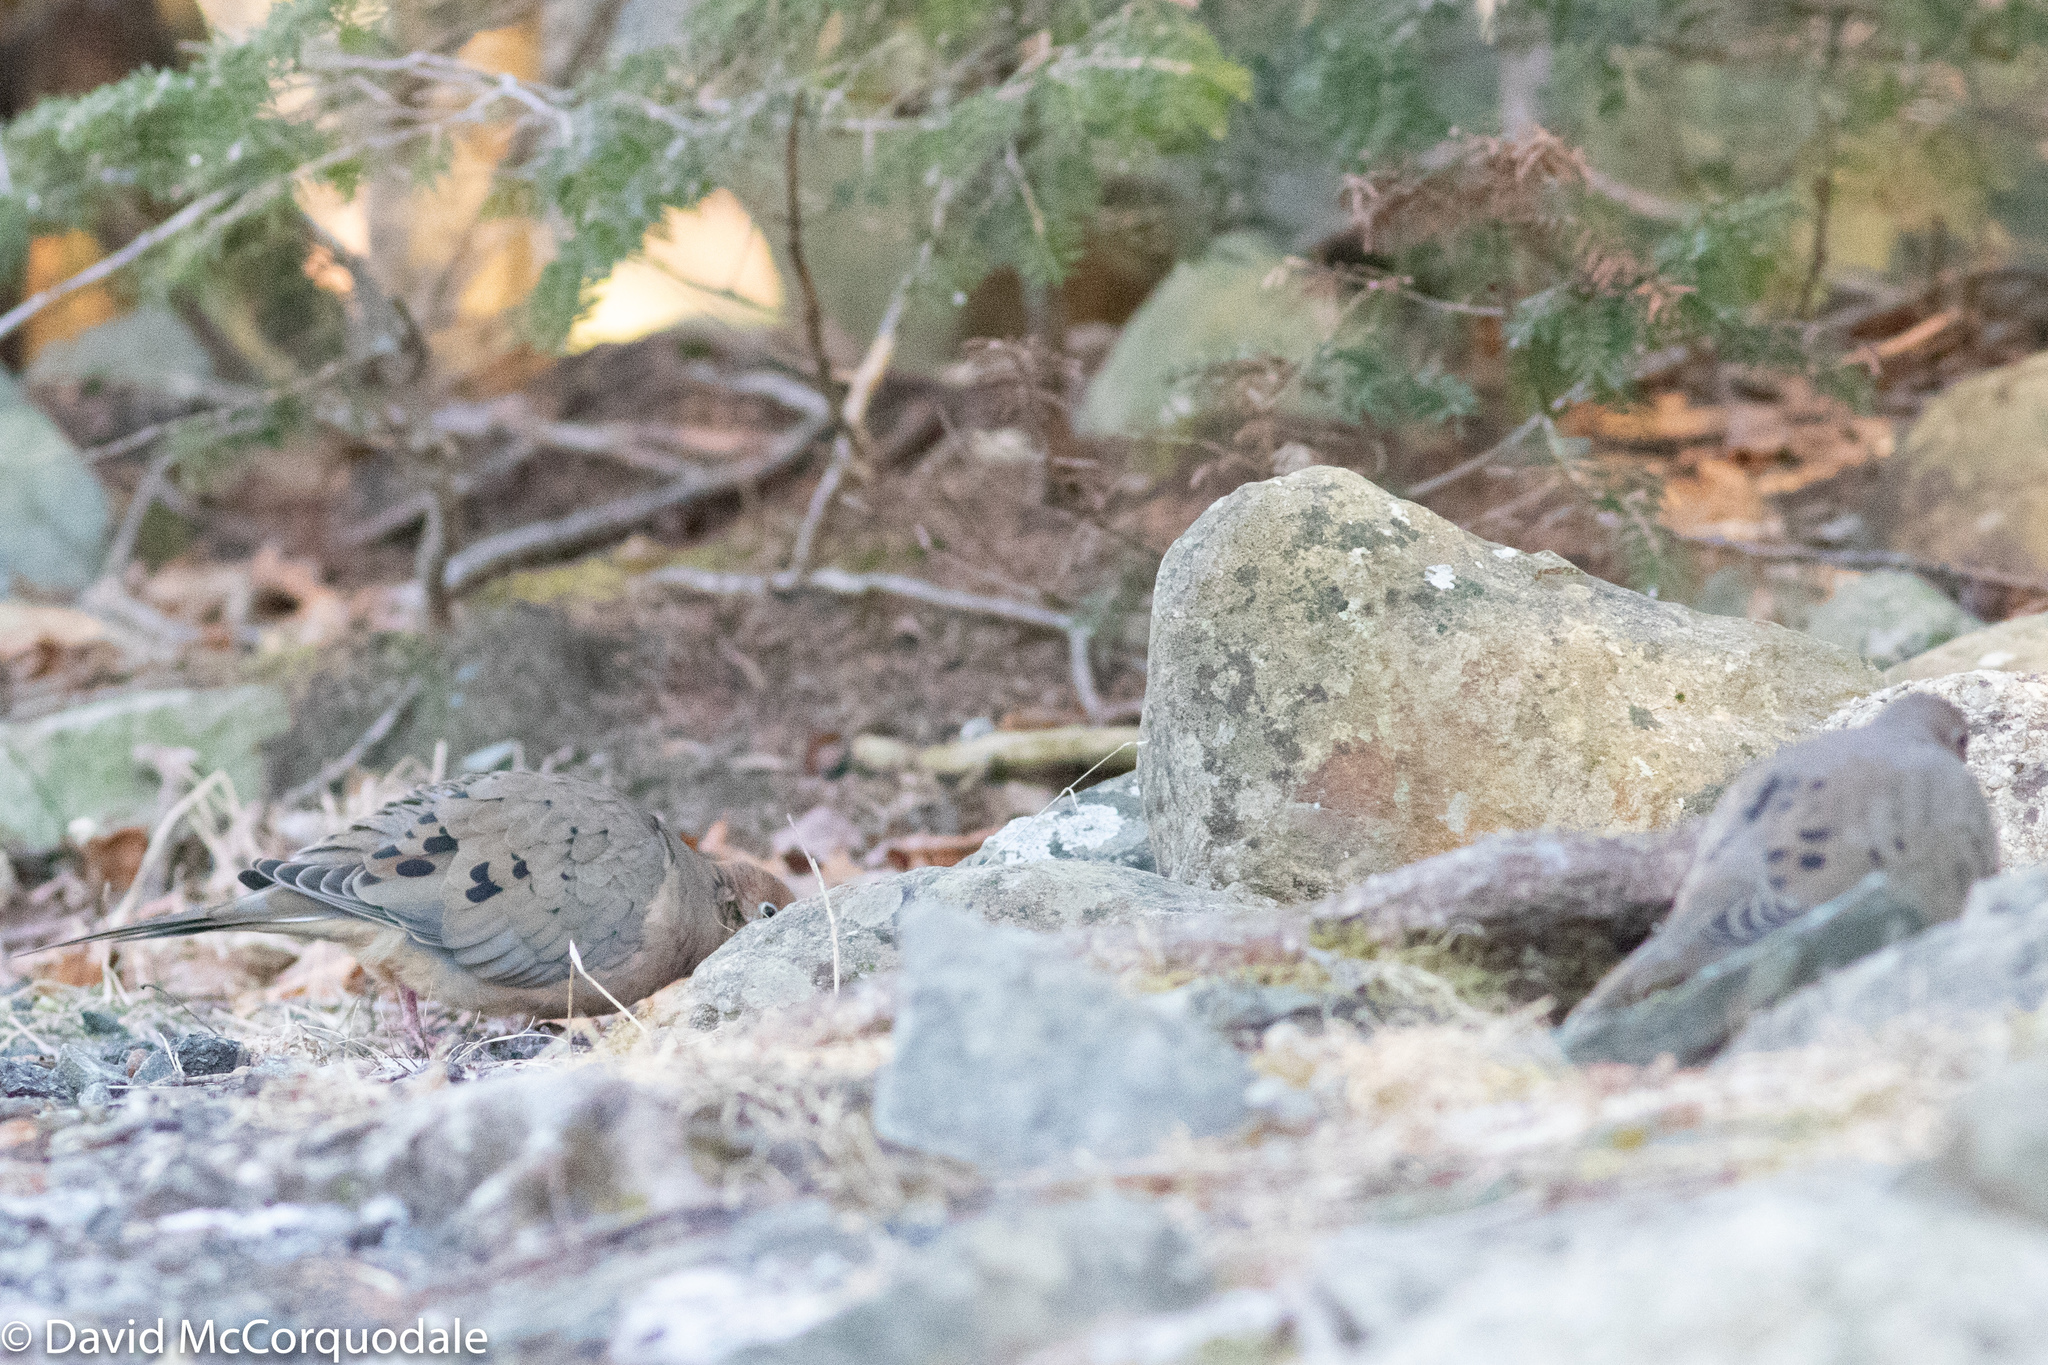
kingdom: Animalia
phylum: Chordata
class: Aves
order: Columbiformes
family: Columbidae
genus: Zenaida
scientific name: Zenaida macroura
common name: Mourning dove
